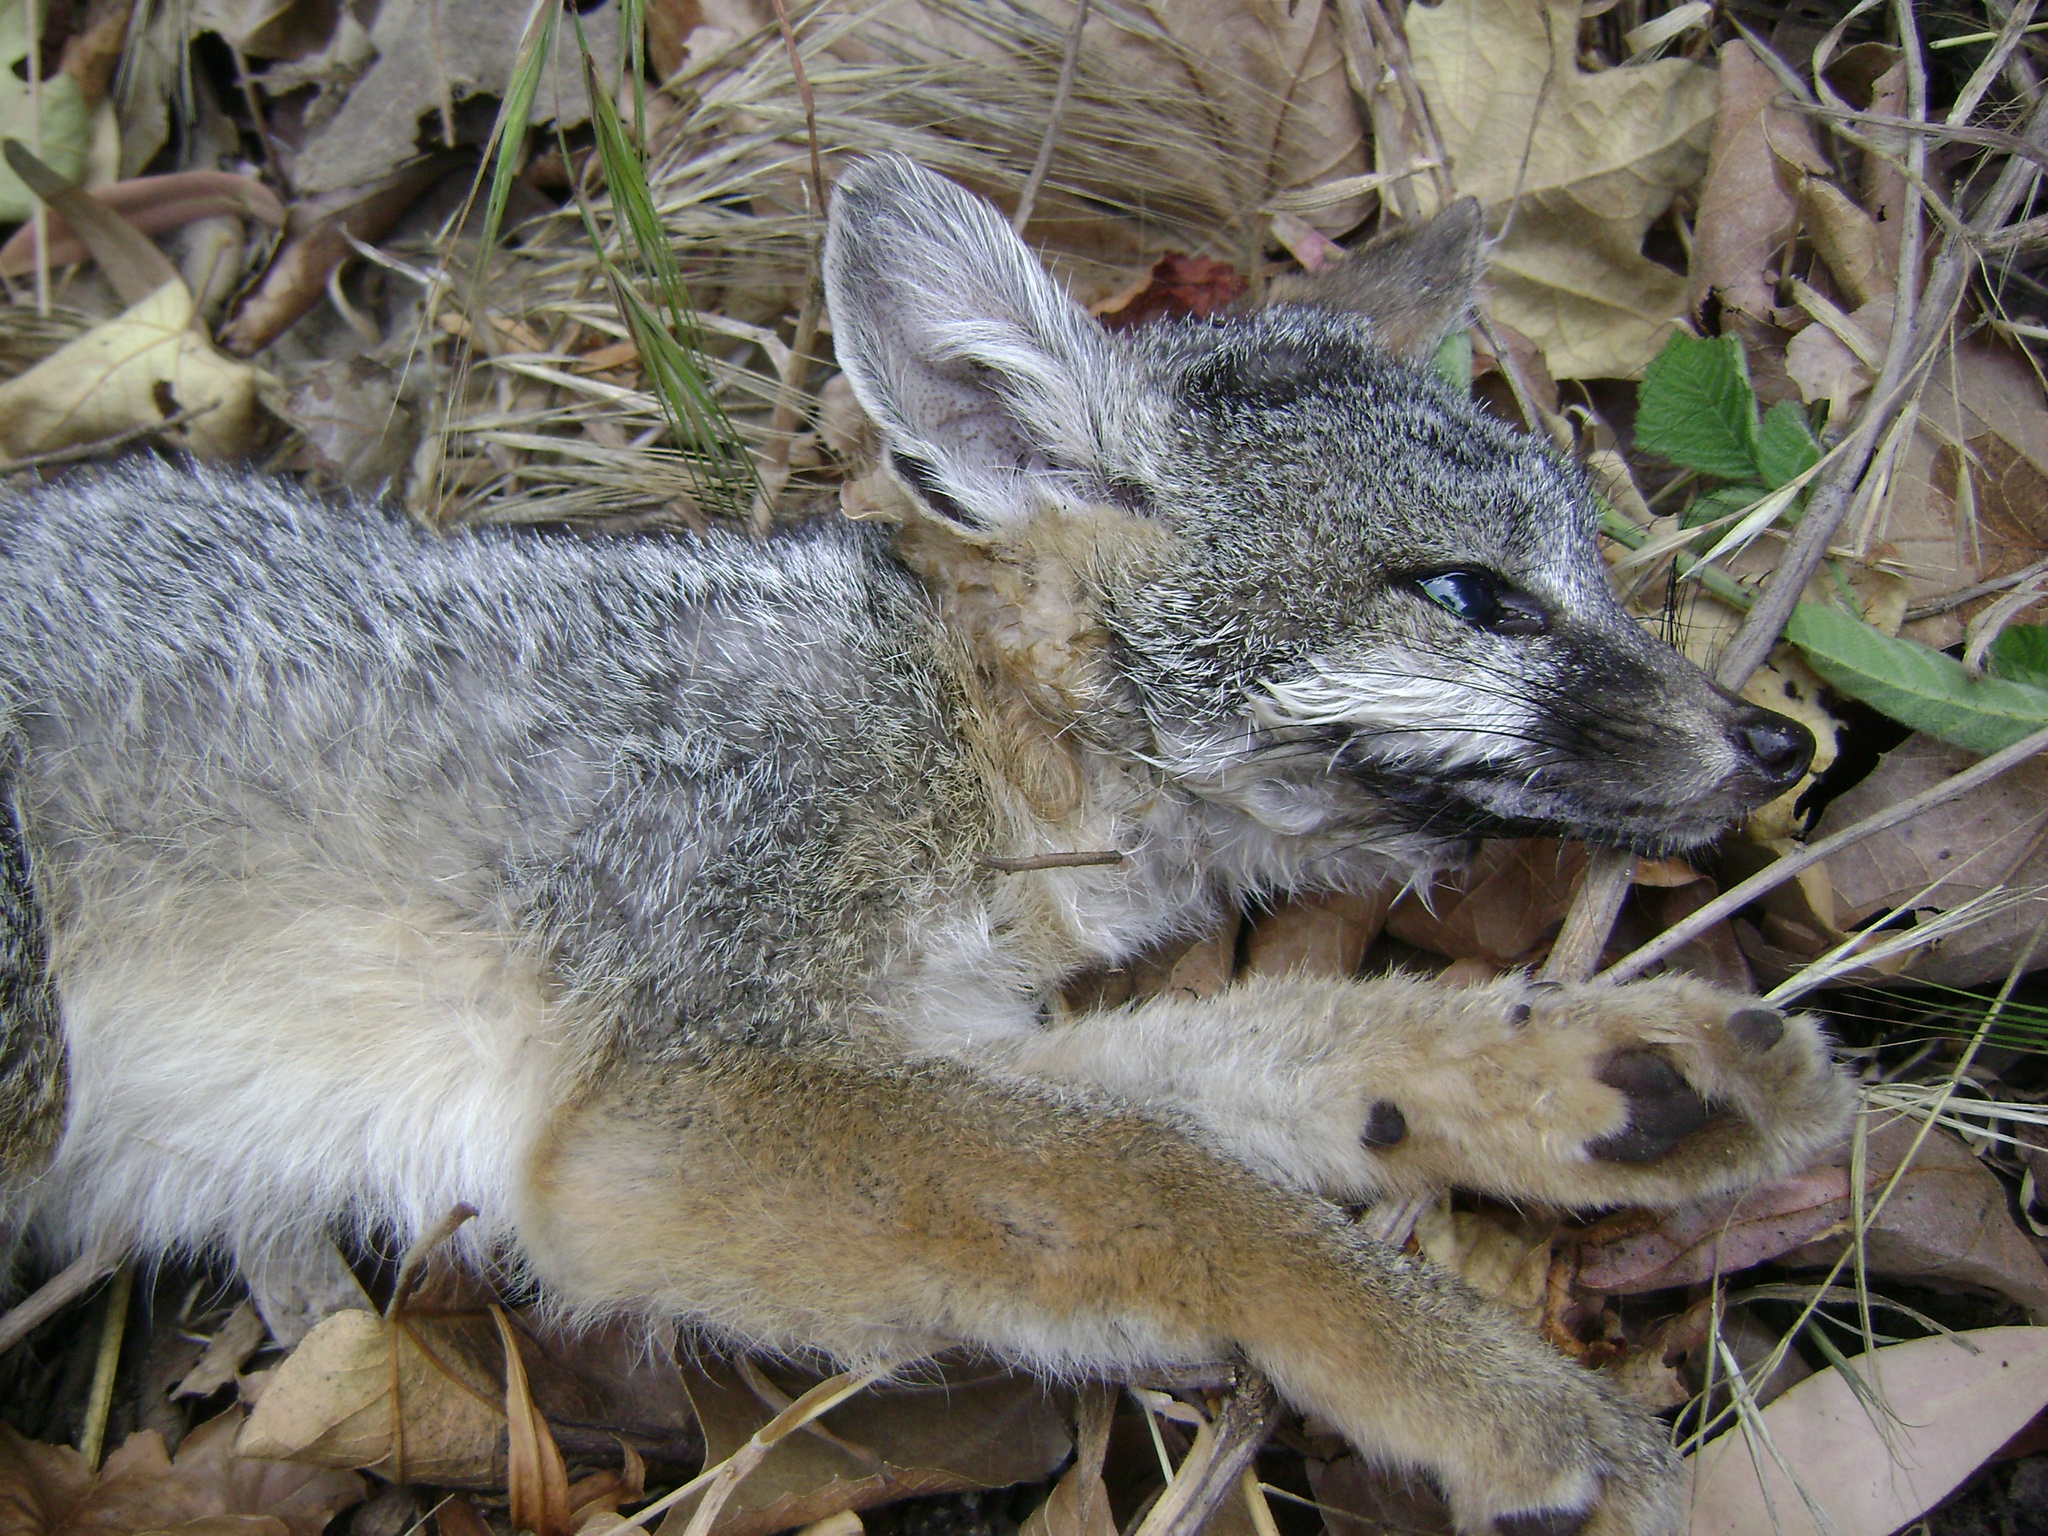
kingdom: Animalia
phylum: Chordata
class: Mammalia
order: Carnivora
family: Canidae
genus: Urocyon
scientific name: Urocyon cinereoargenteus
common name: Gray fox
